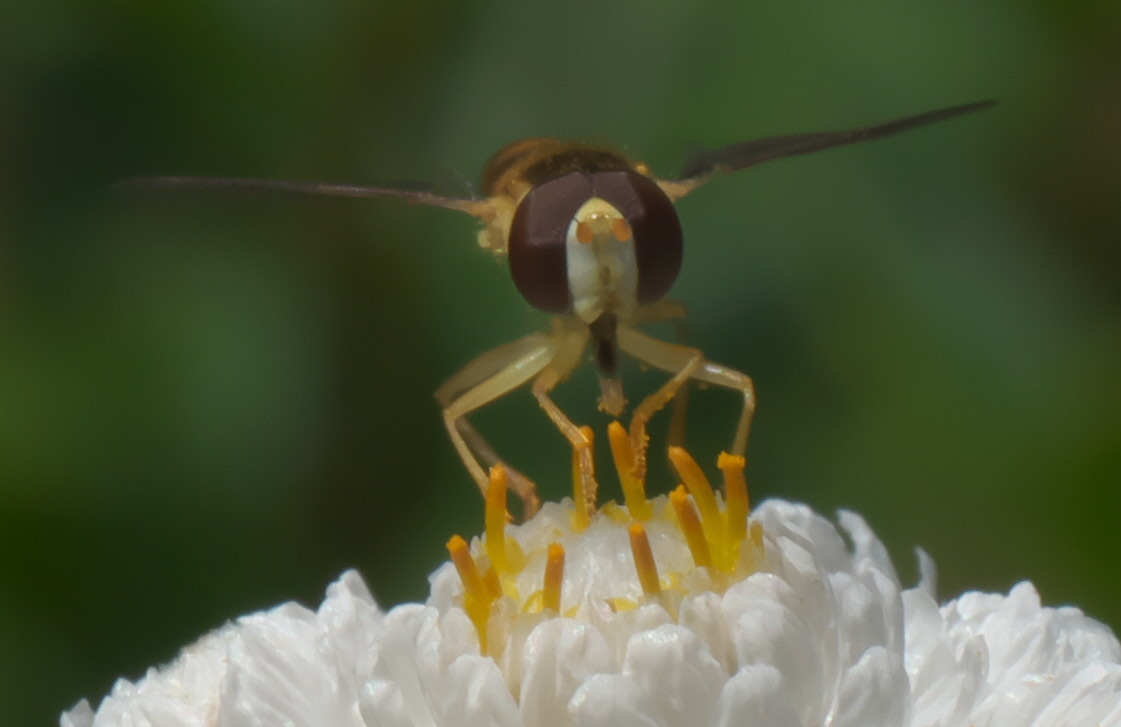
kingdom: Animalia
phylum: Arthropoda
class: Insecta
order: Diptera
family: Syrphidae
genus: Sphaerophoria
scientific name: Sphaerophoria
